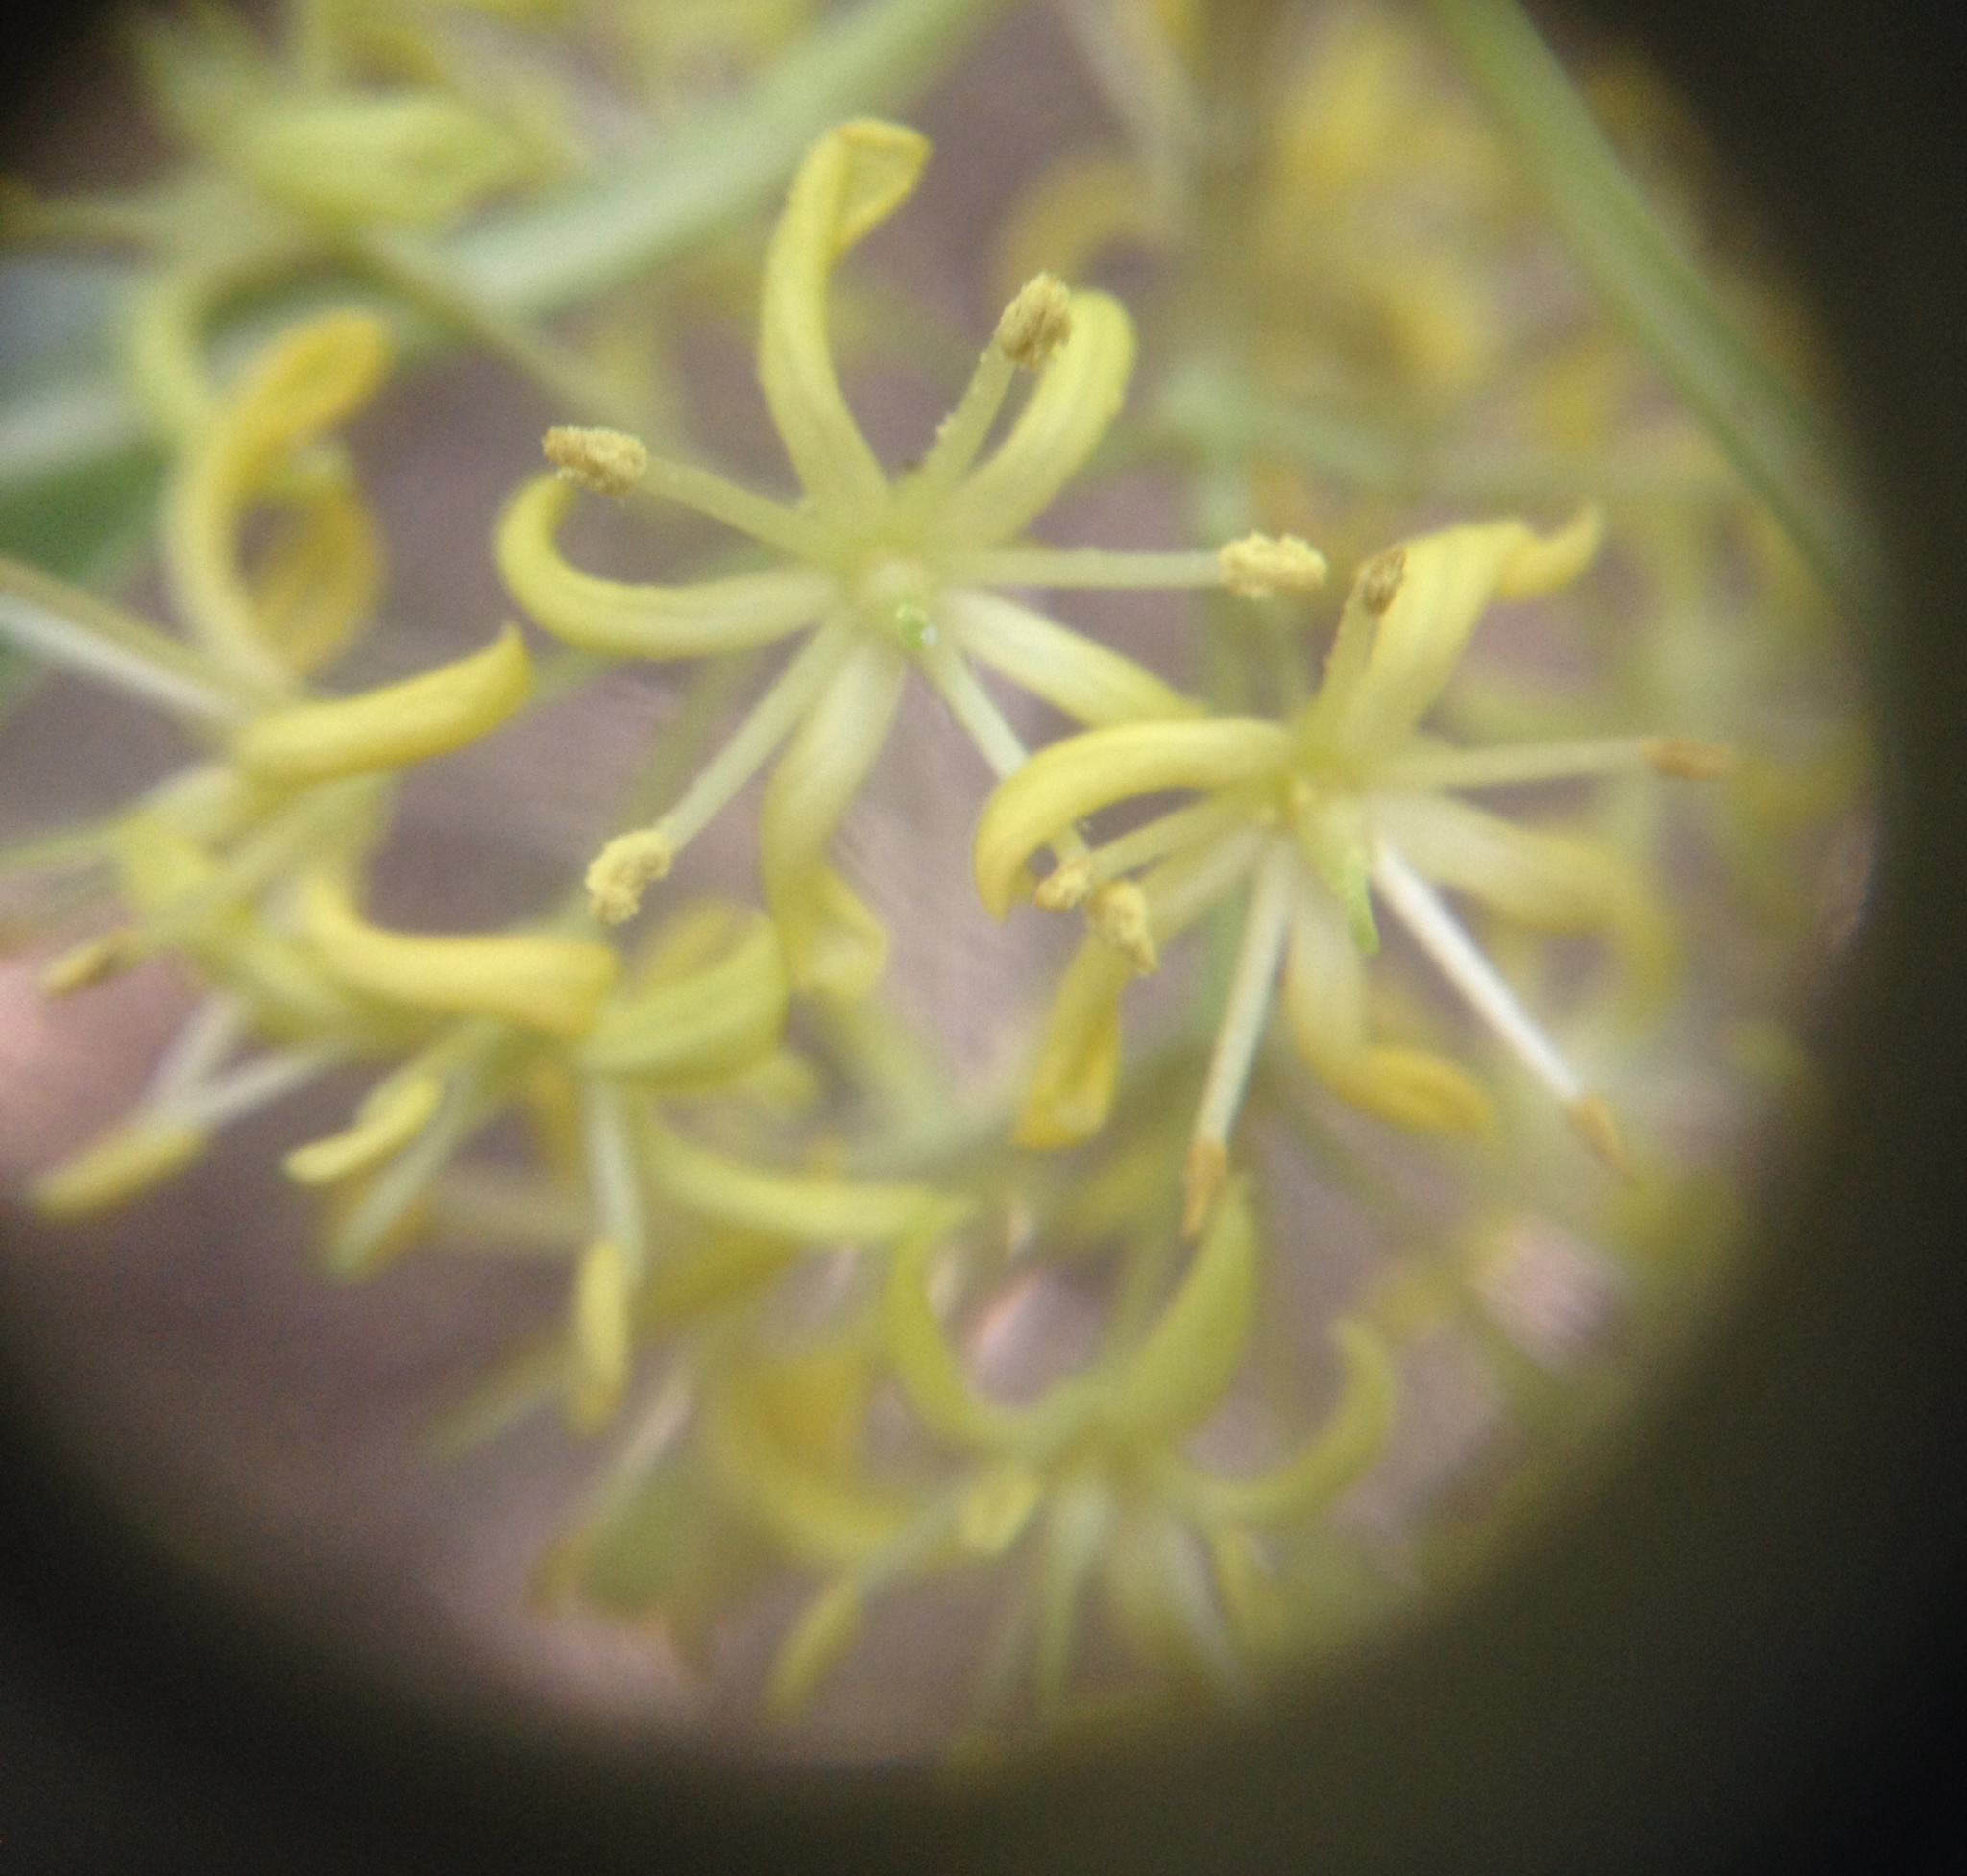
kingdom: Plantae
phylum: Tracheophyta
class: Magnoliopsida
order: Apiales
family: Pittosporaceae
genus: Pittosporum
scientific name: Pittosporum eugenioides
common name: Lemonwood
